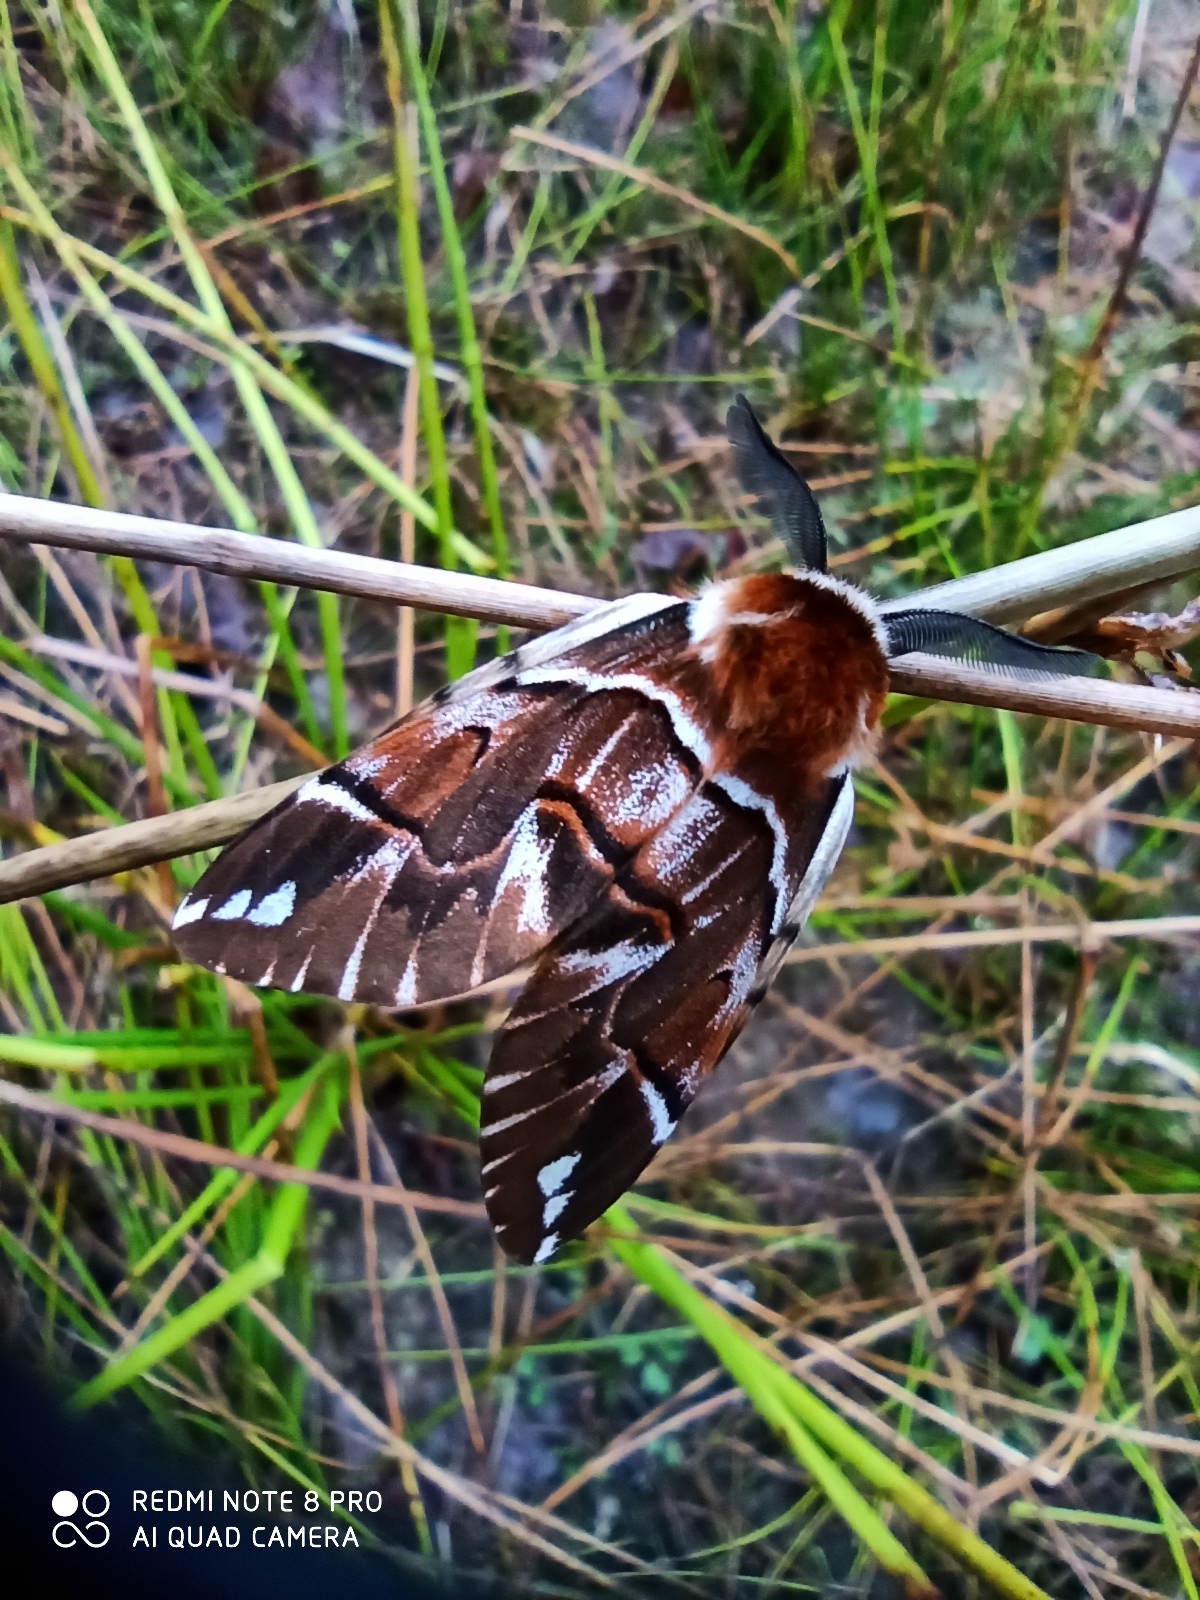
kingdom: Animalia
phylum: Arthropoda
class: Insecta
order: Lepidoptera
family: Endromidae
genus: Endromis
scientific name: Endromis versicolora
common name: Kentish glory
